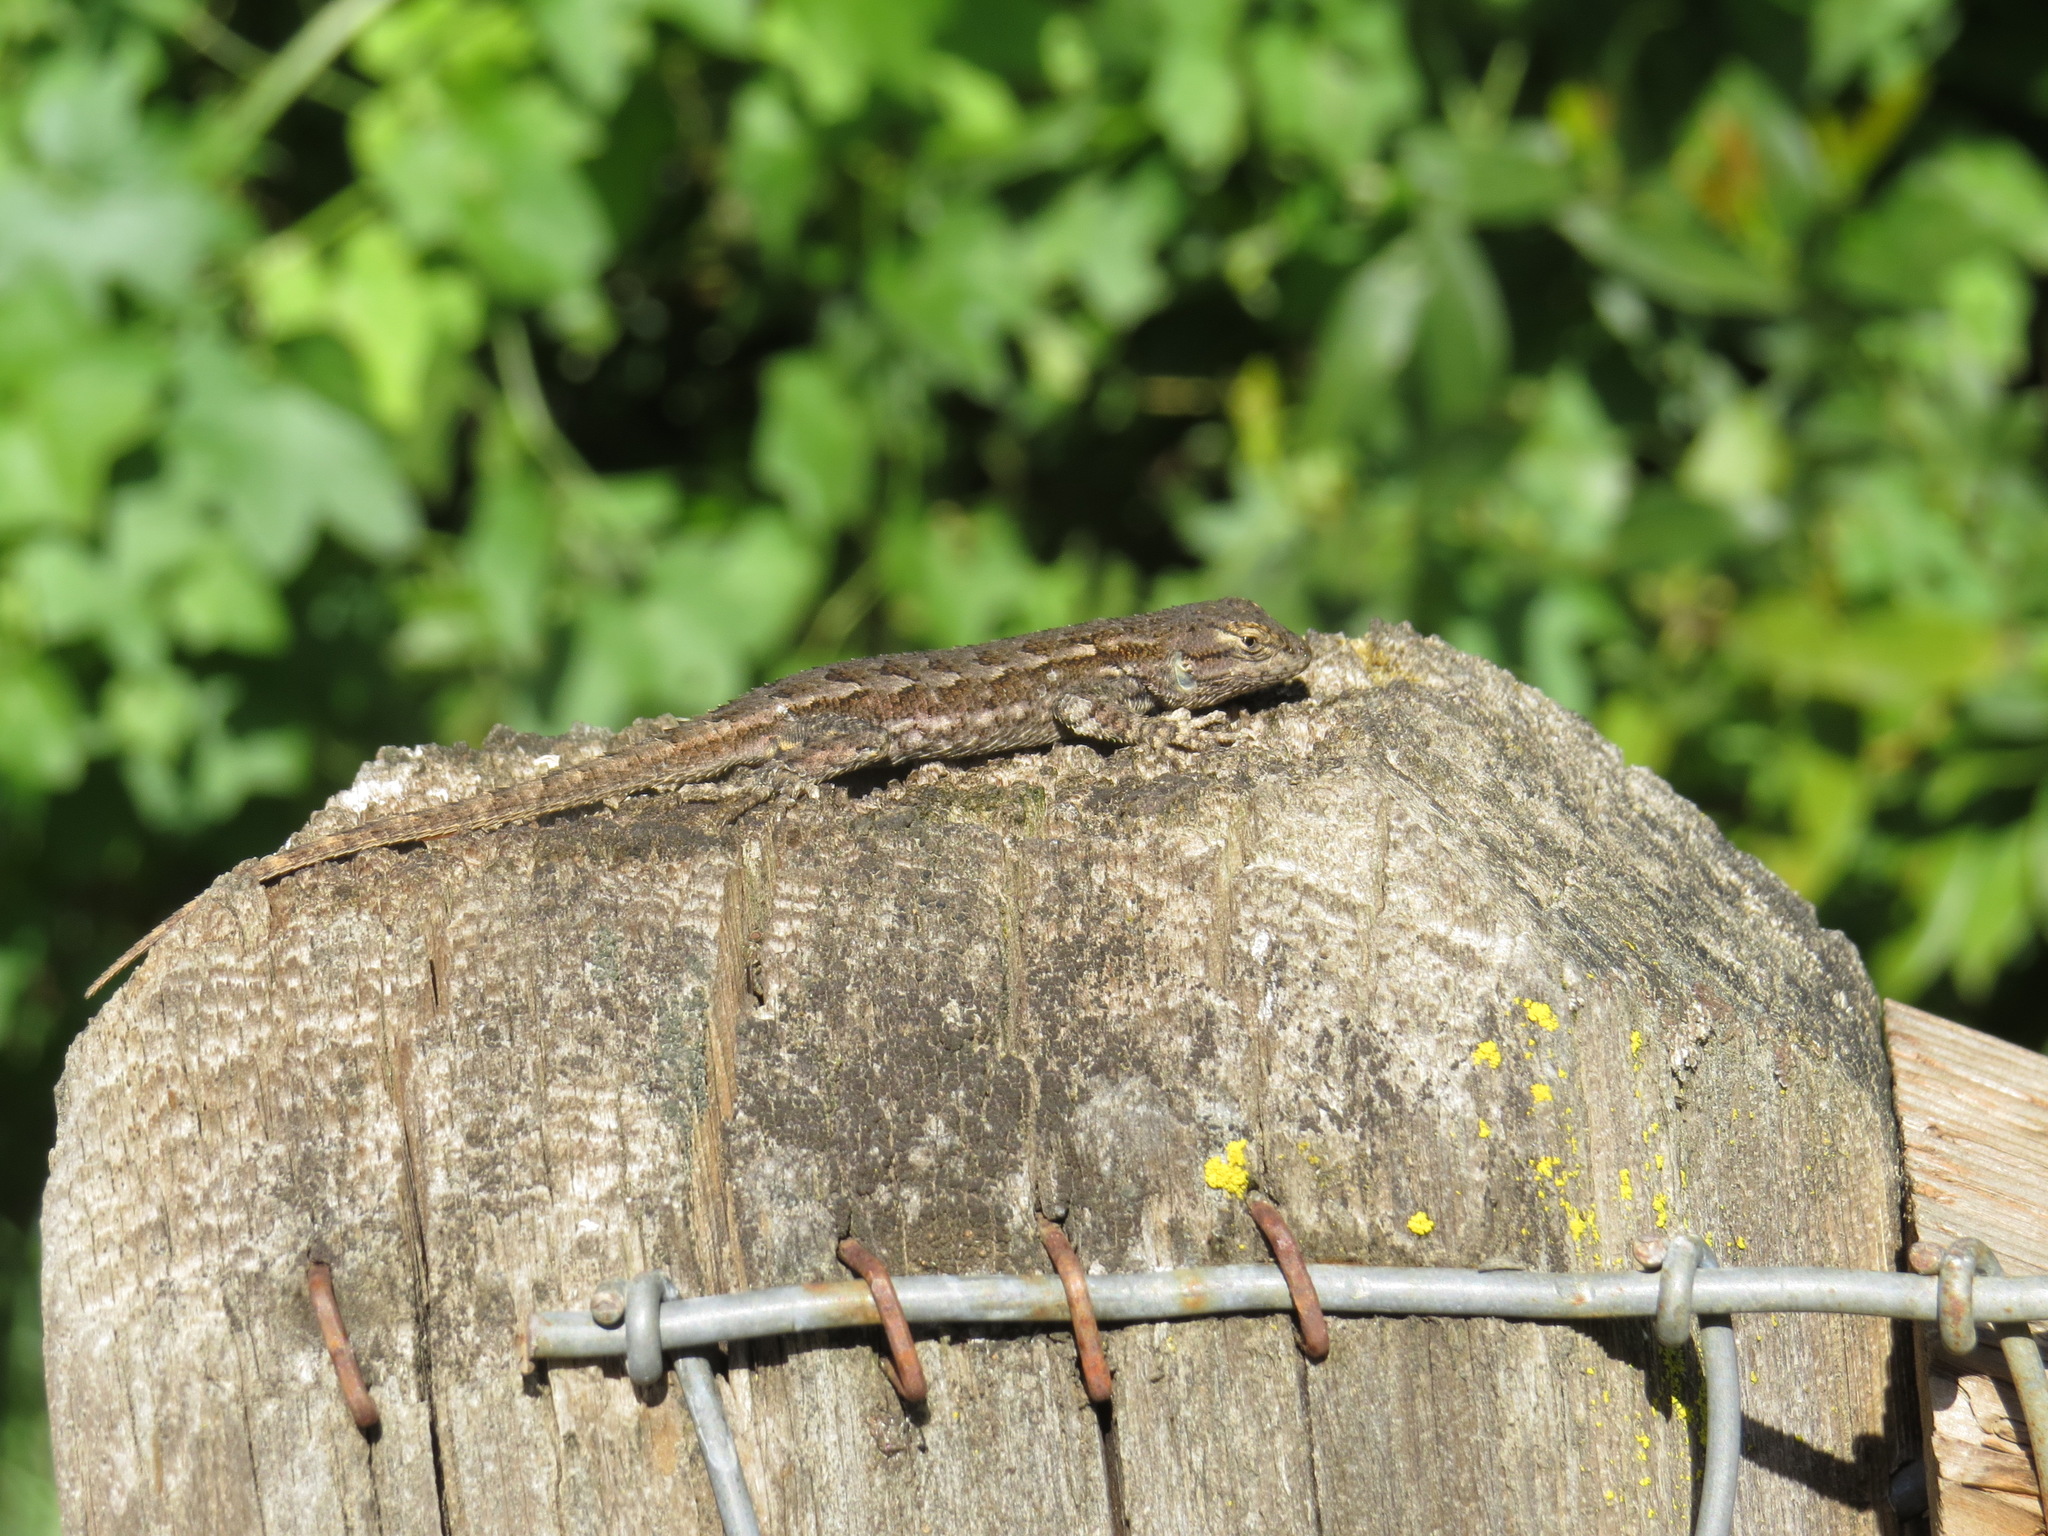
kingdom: Animalia
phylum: Chordata
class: Squamata
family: Phrynosomatidae
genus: Sceloporus
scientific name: Sceloporus occidentalis
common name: Western fence lizard
